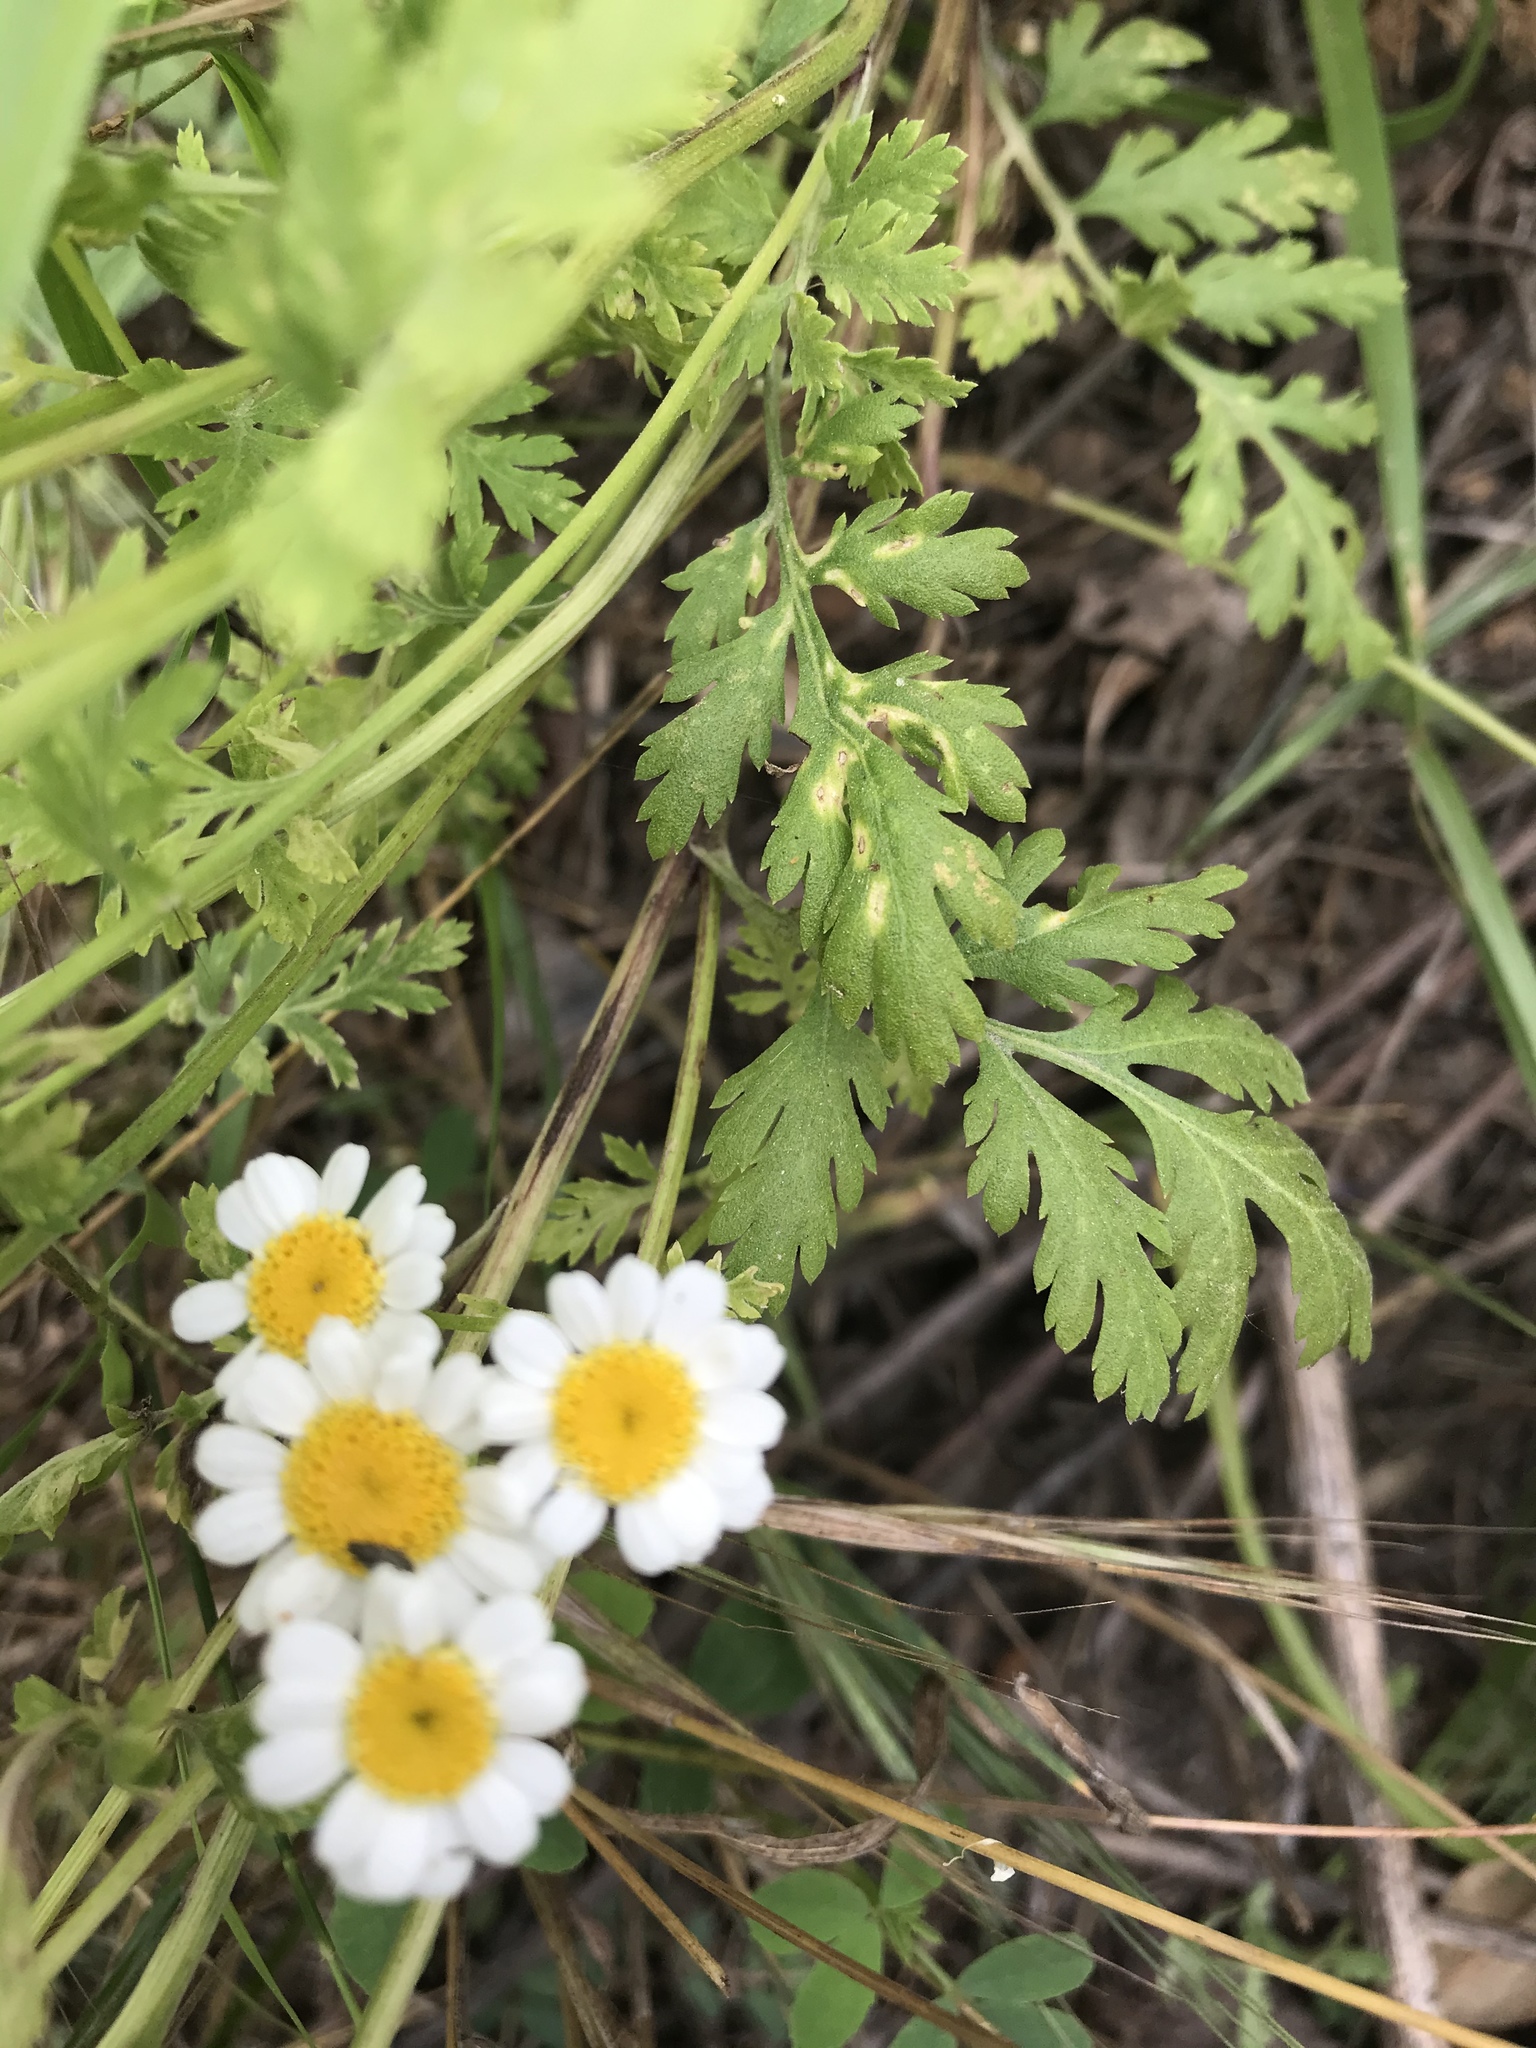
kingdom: Plantae
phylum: Tracheophyta
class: Magnoliopsida
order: Asterales
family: Asteraceae
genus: Tanacetum
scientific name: Tanacetum parthenium
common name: Feverfew
